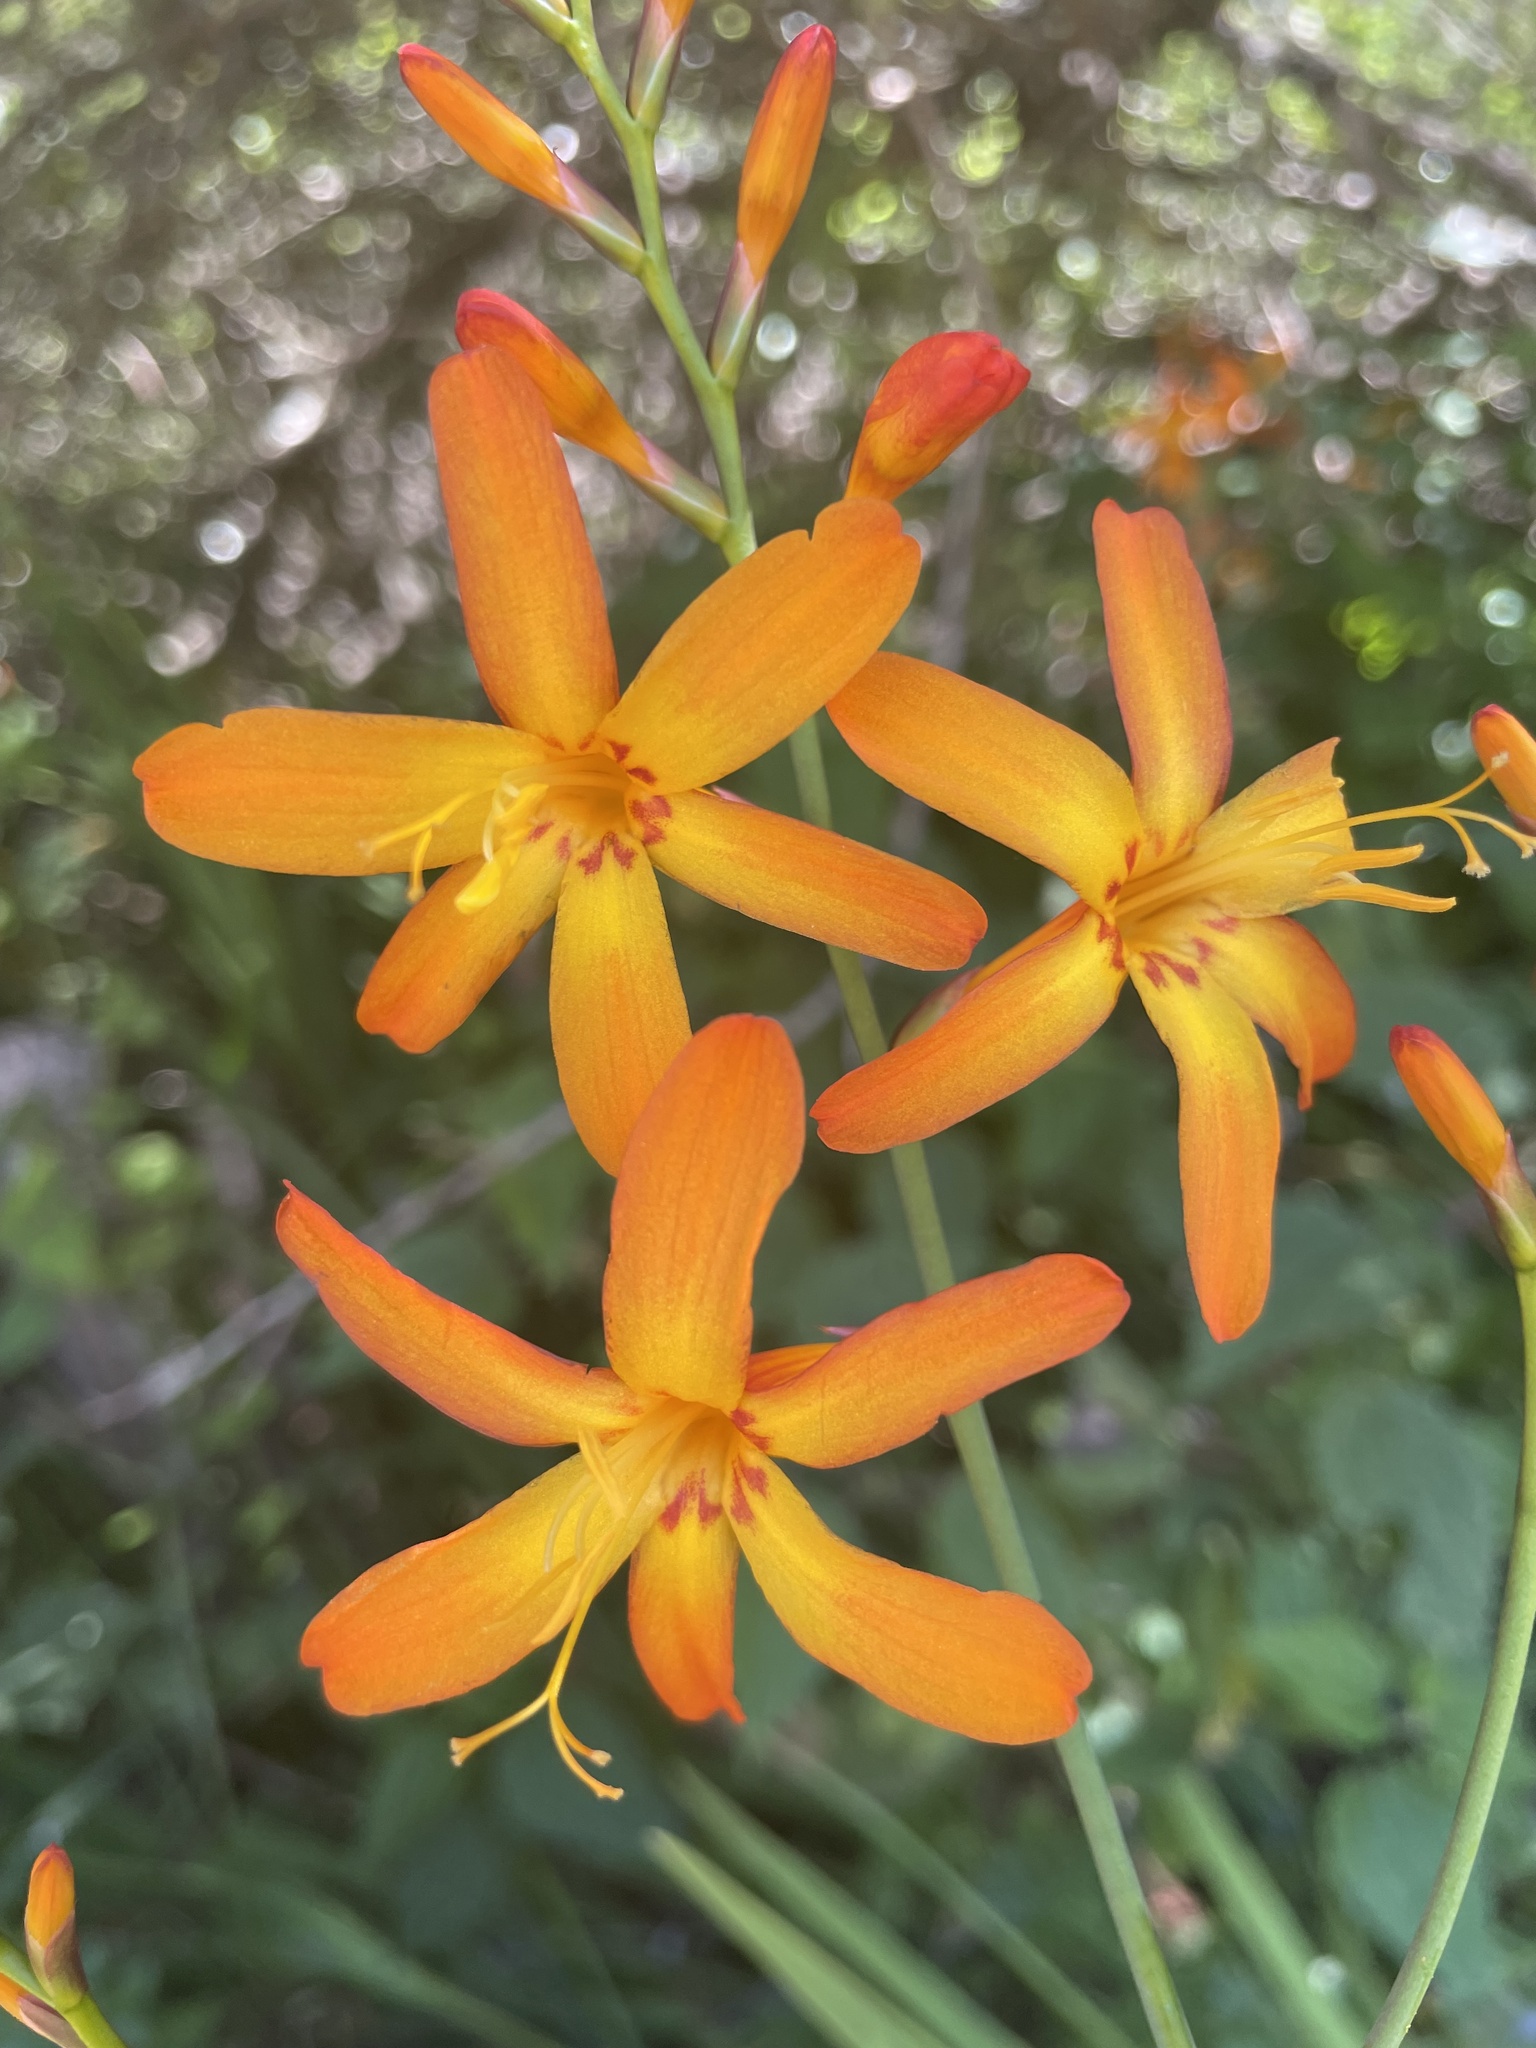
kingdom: Plantae
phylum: Tracheophyta
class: Liliopsida
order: Asparagales
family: Iridaceae
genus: Crocosmia
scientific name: Crocosmia crocosmiiflora
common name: Montbretia
